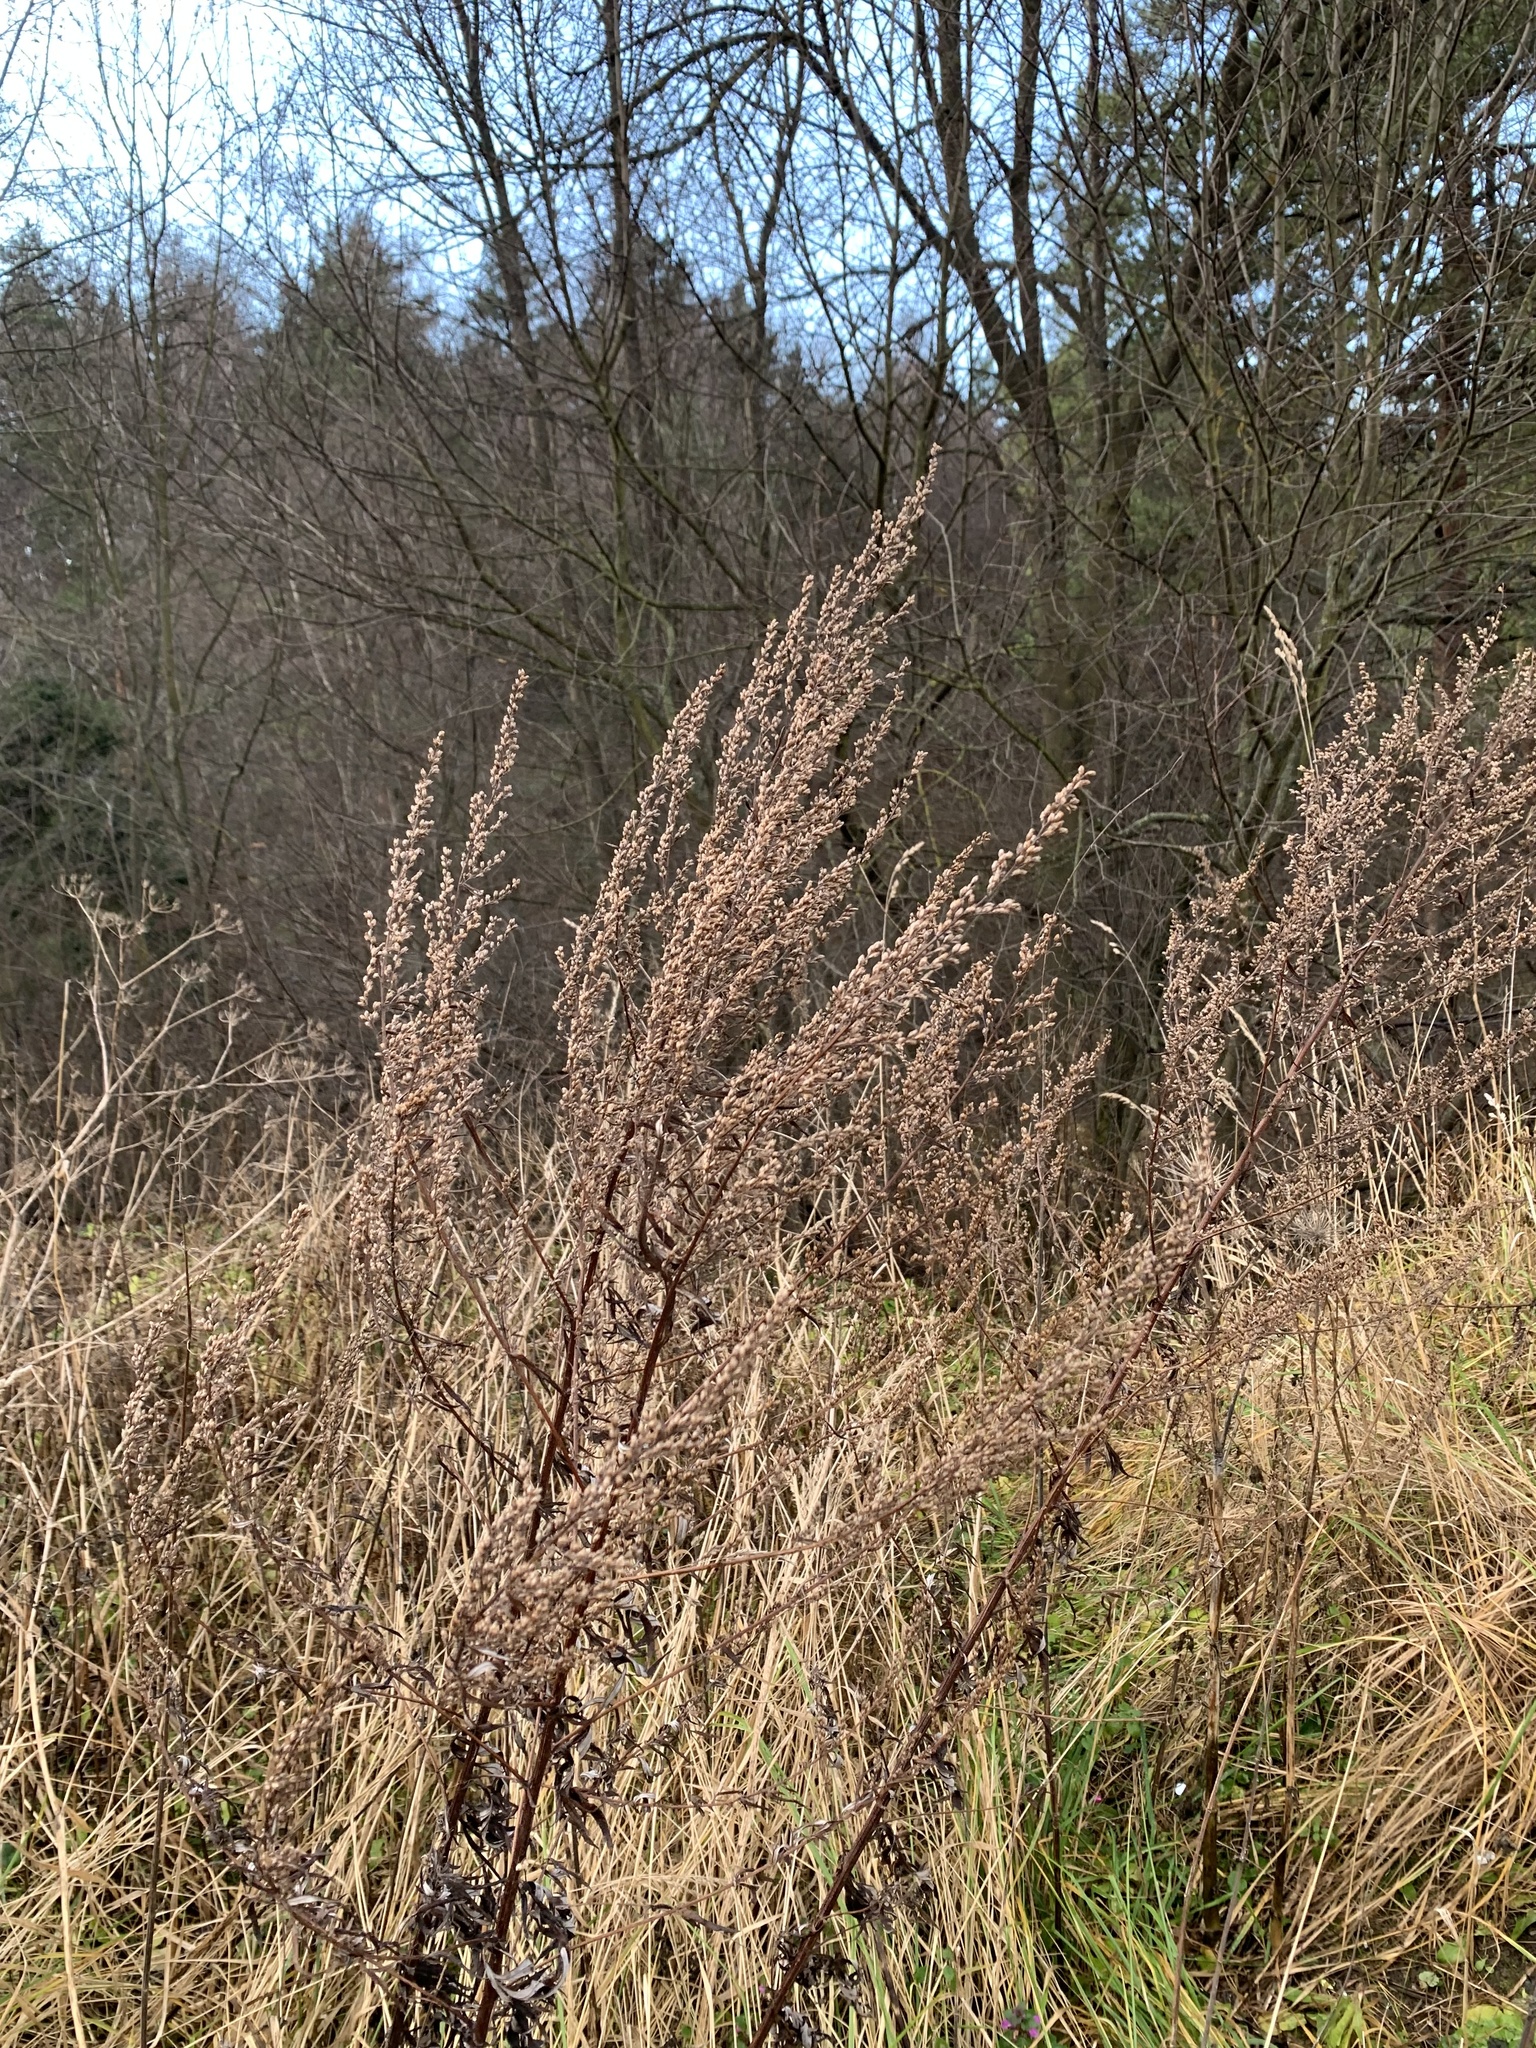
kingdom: Plantae
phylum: Tracheophyta
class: Magnoliopsida
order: Asterales
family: Asteraceae
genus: Artemisia
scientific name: Artemisia vulgaris
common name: Mugwort
